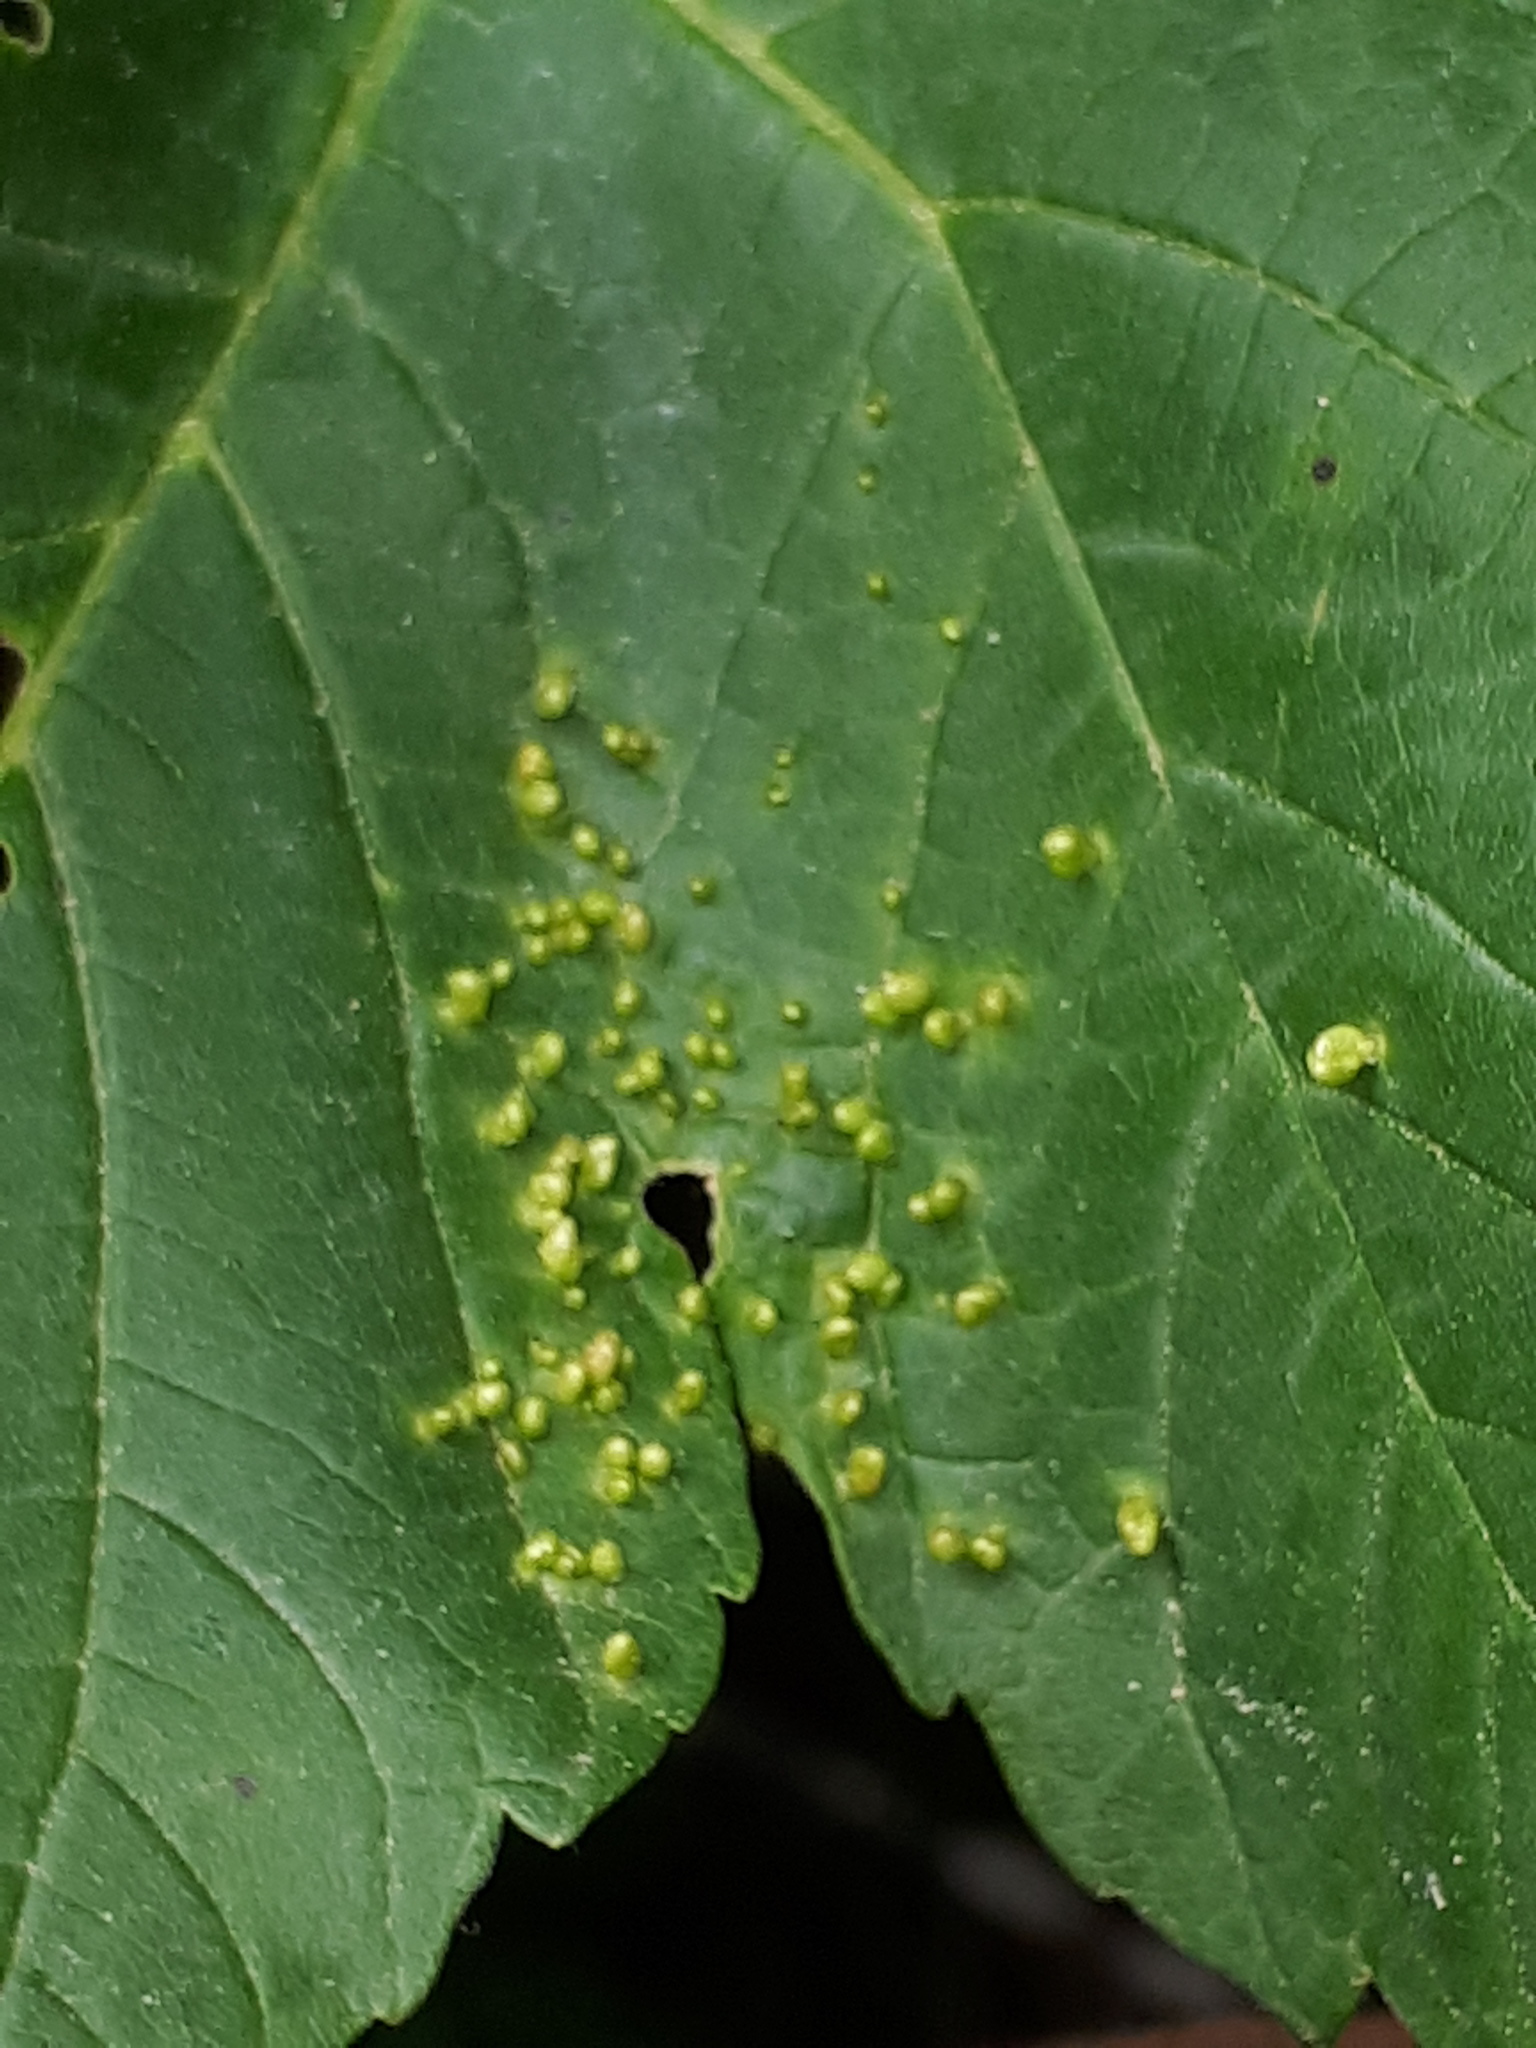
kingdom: Animalia
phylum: Arthropoda
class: Arachnida
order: Trombidiformes
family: Eriophyidae
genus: Aceria
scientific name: Aceria cephaloneus
